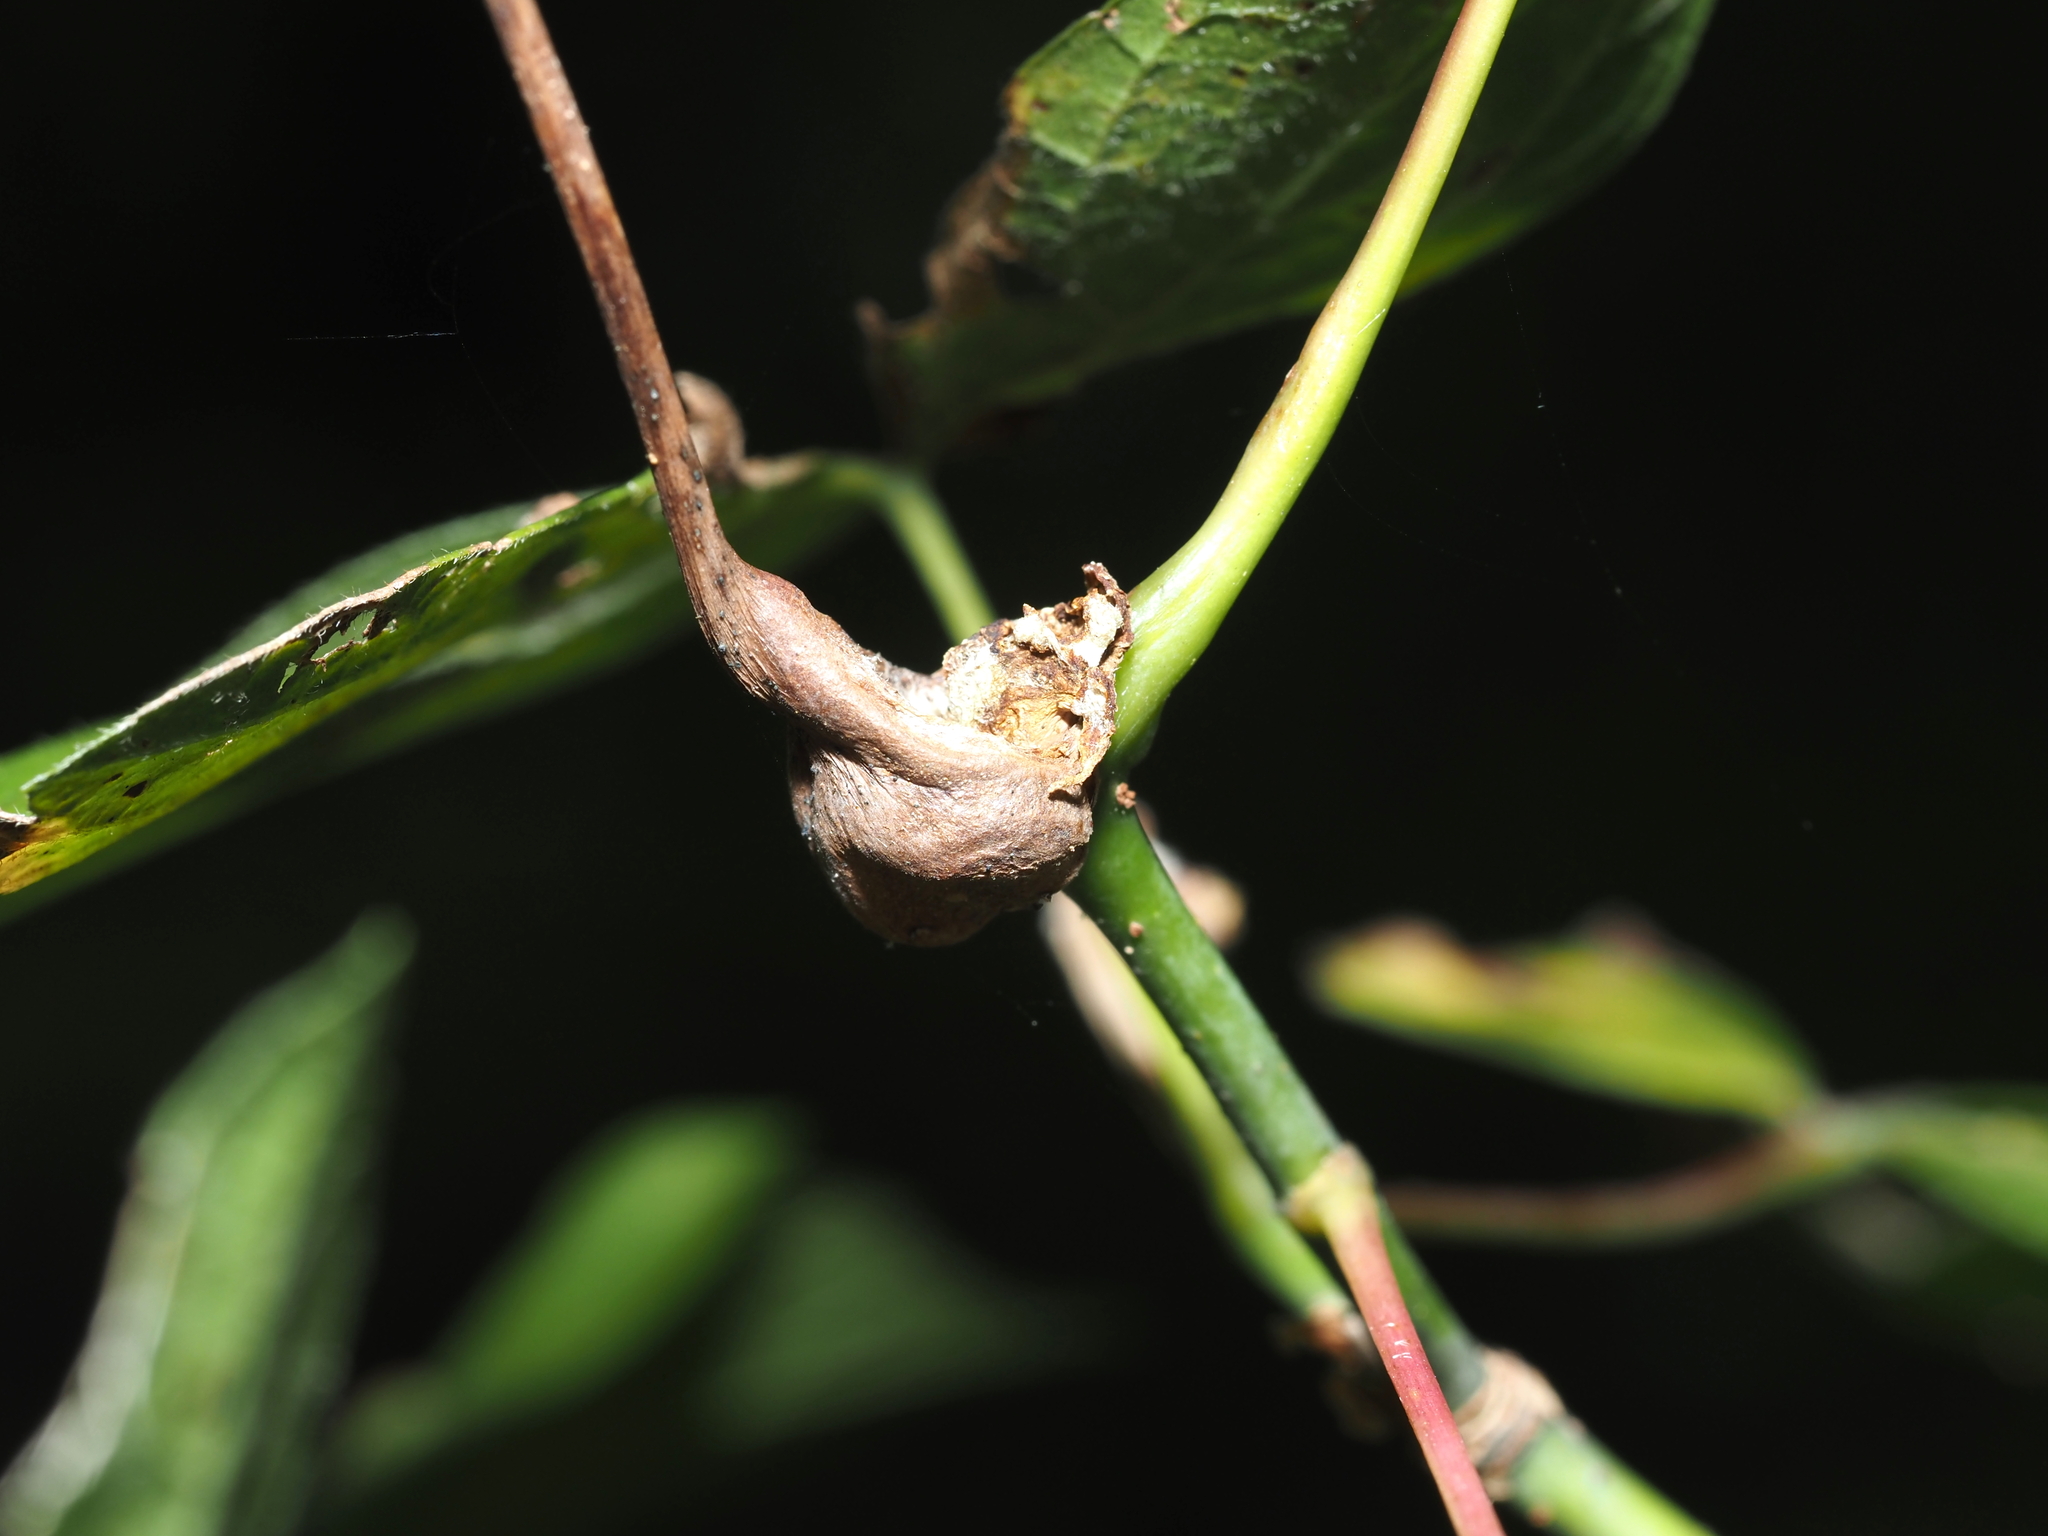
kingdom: Animalia
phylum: Arthropoda
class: Insecta
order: Diptera
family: Cecidomyiidae
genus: Contarinia
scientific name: Contarinia negundinis
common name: Boxelder budgall midge
